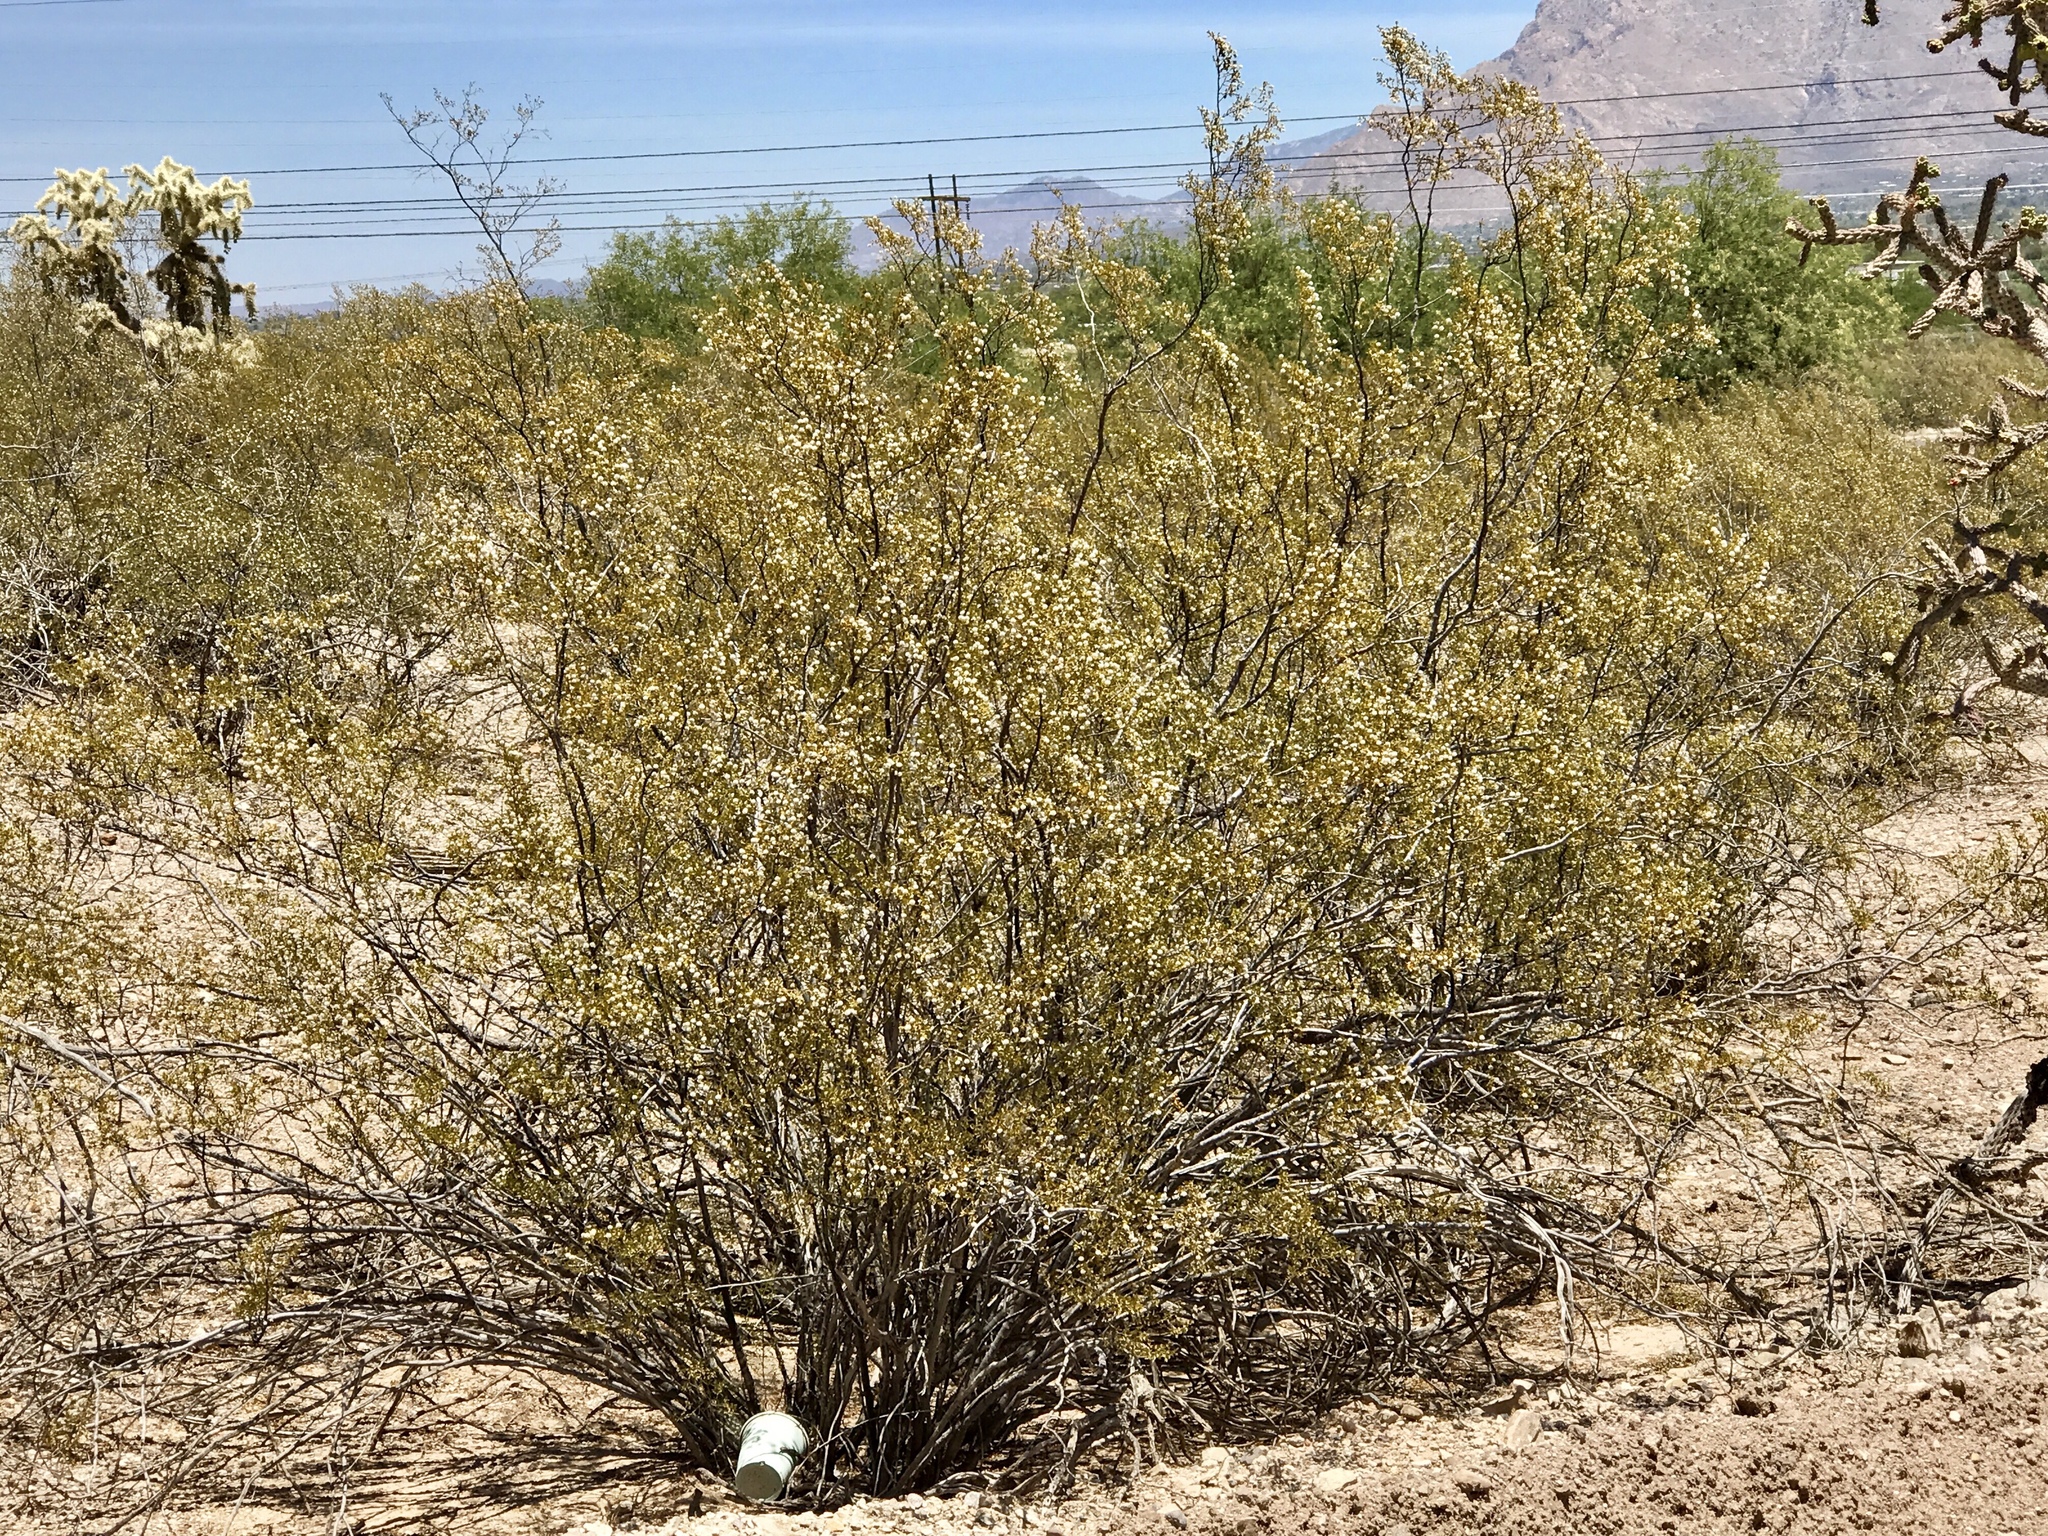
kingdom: Plantae
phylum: Tracheophyta
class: Magnoliopsida
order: Zygophyllales
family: Zygophyllaceae
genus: Larrea
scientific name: Larrea tridentata
